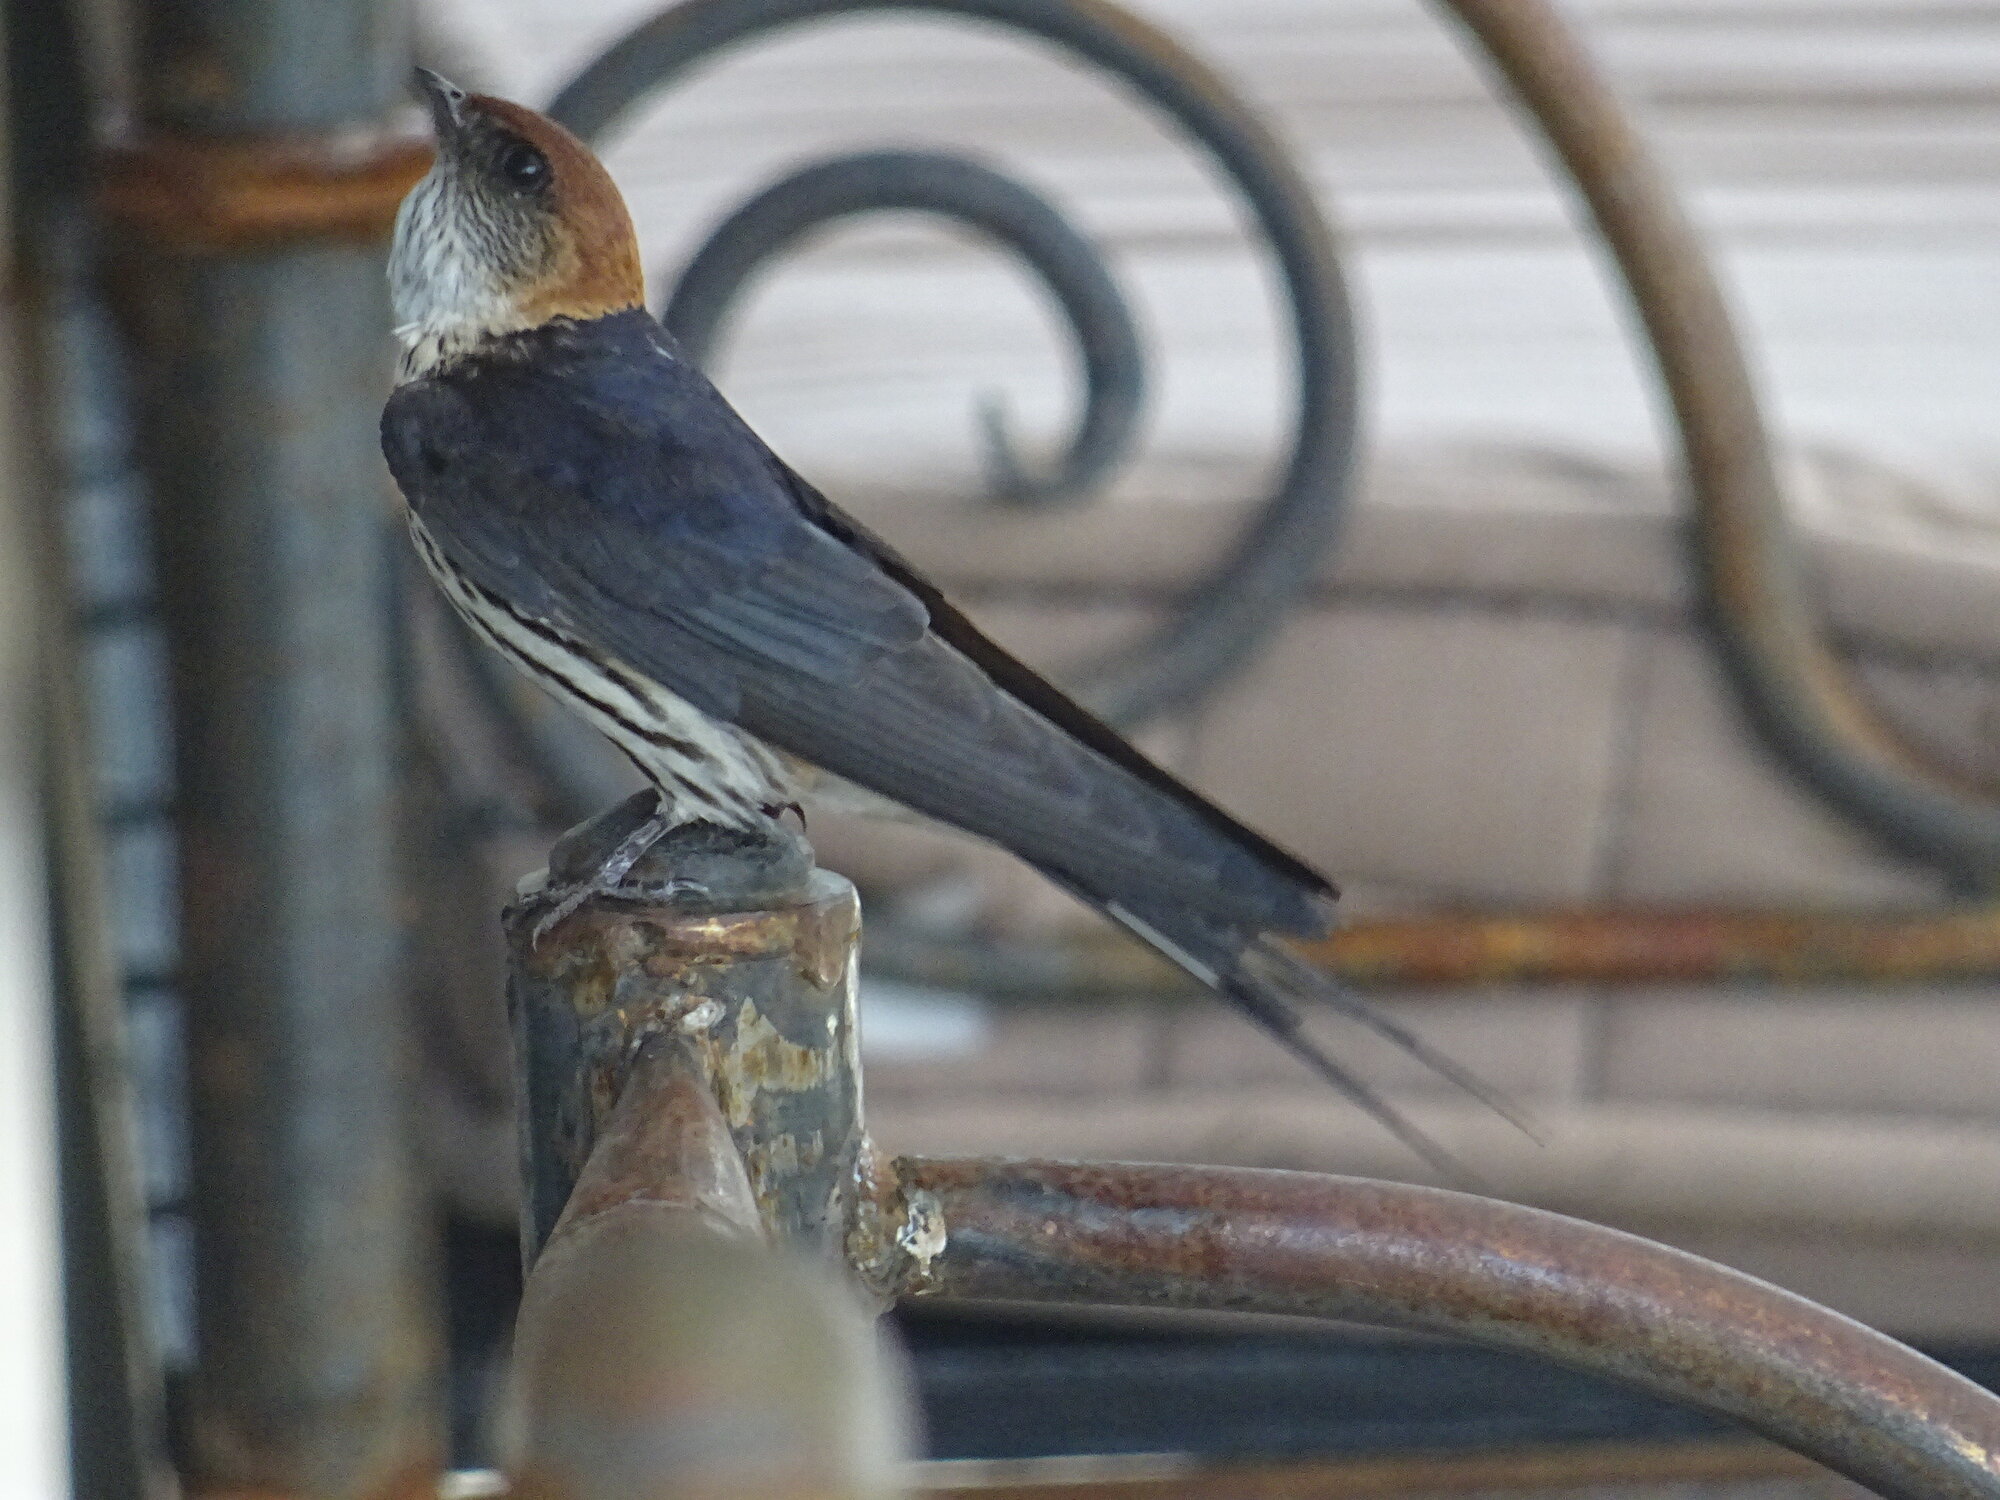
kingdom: Animalia
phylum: Chordata
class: Aves
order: Passeriformes
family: Hirundinidae
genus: Cecropis
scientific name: Cecropis cucullata
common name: Greater striped-swallow
